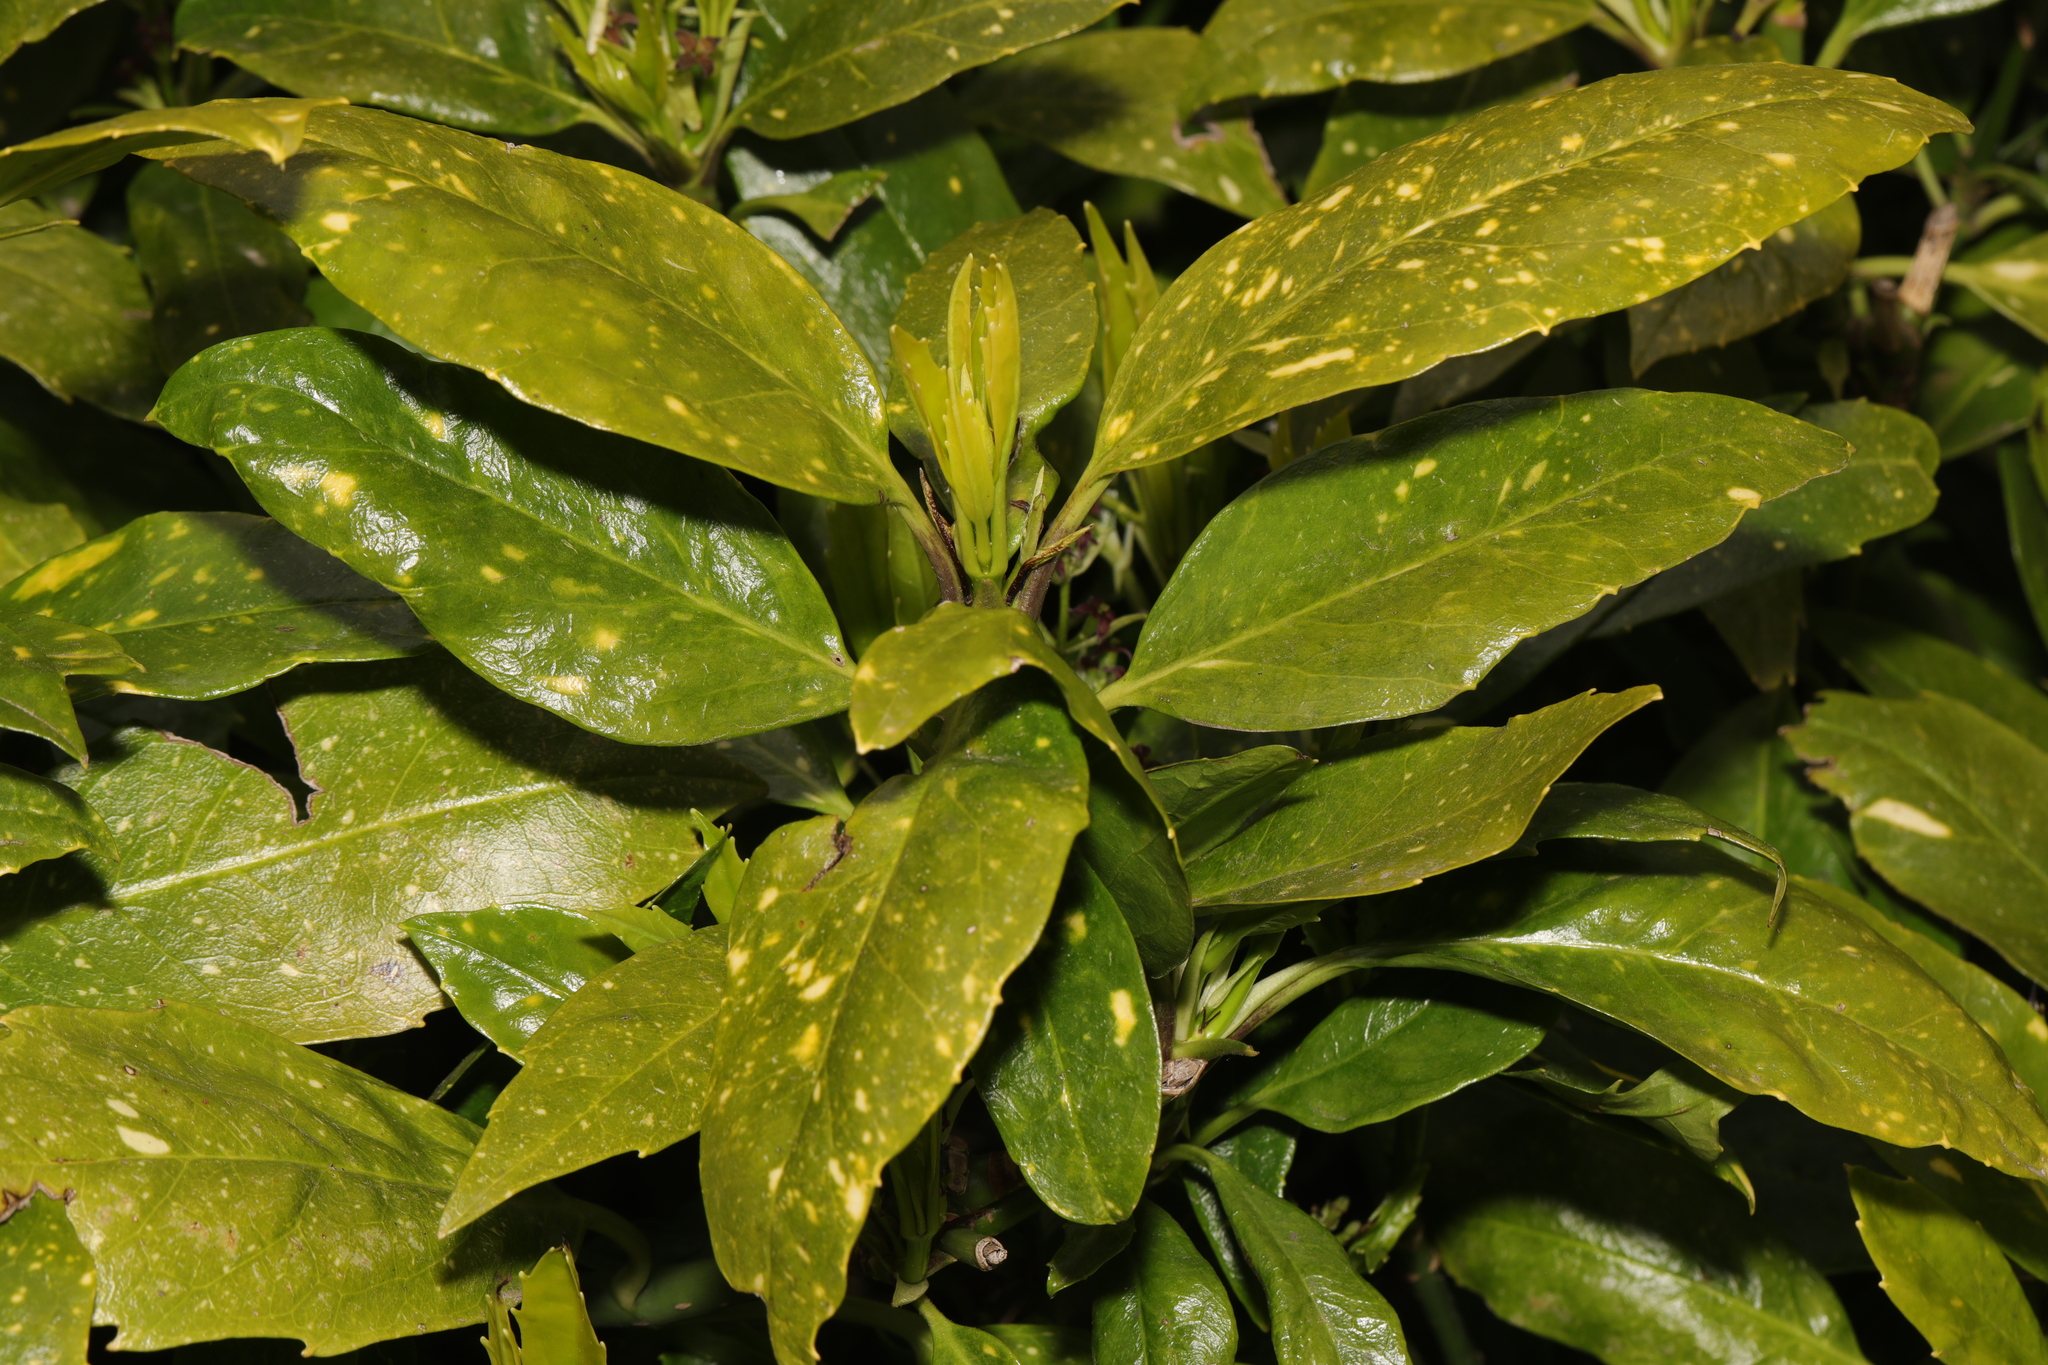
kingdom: Plantae
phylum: Tracheophyta
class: Magnoliopsida
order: Garryales
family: Garryaceae
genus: Aucuba
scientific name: Aucuba japonica
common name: Spotted-laurel
